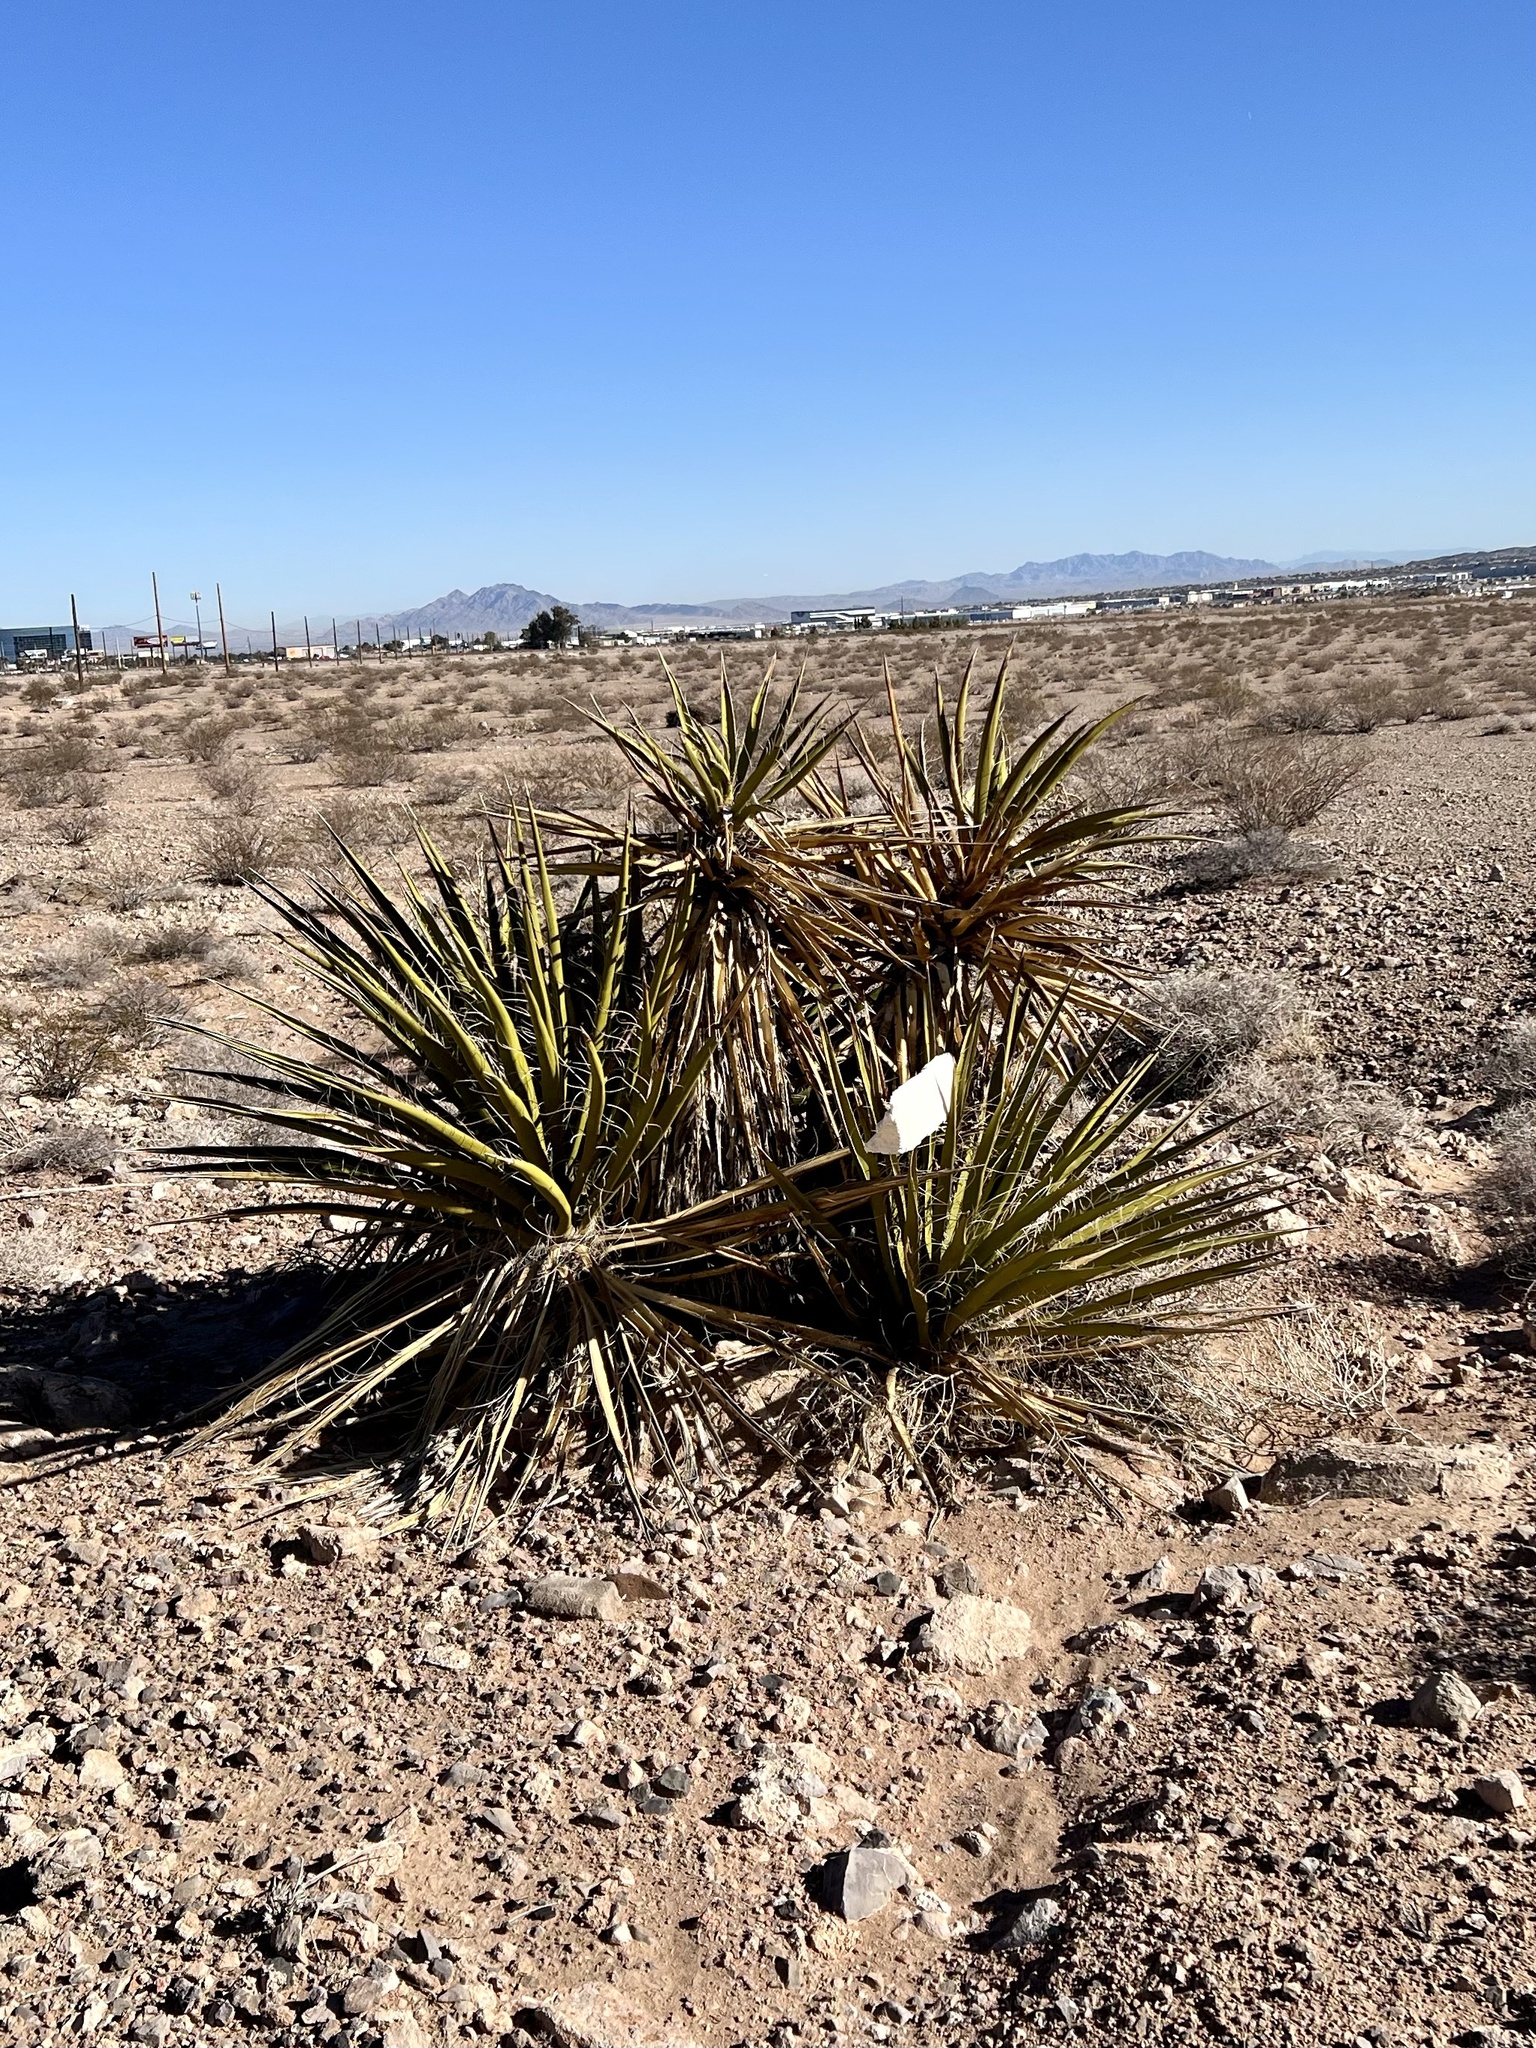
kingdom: Plantae
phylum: Tracheophyta
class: Liliopsida
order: Asparagales
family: Asparagaceae
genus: Yucca
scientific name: Yucca schidigera
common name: Mojave yucca
